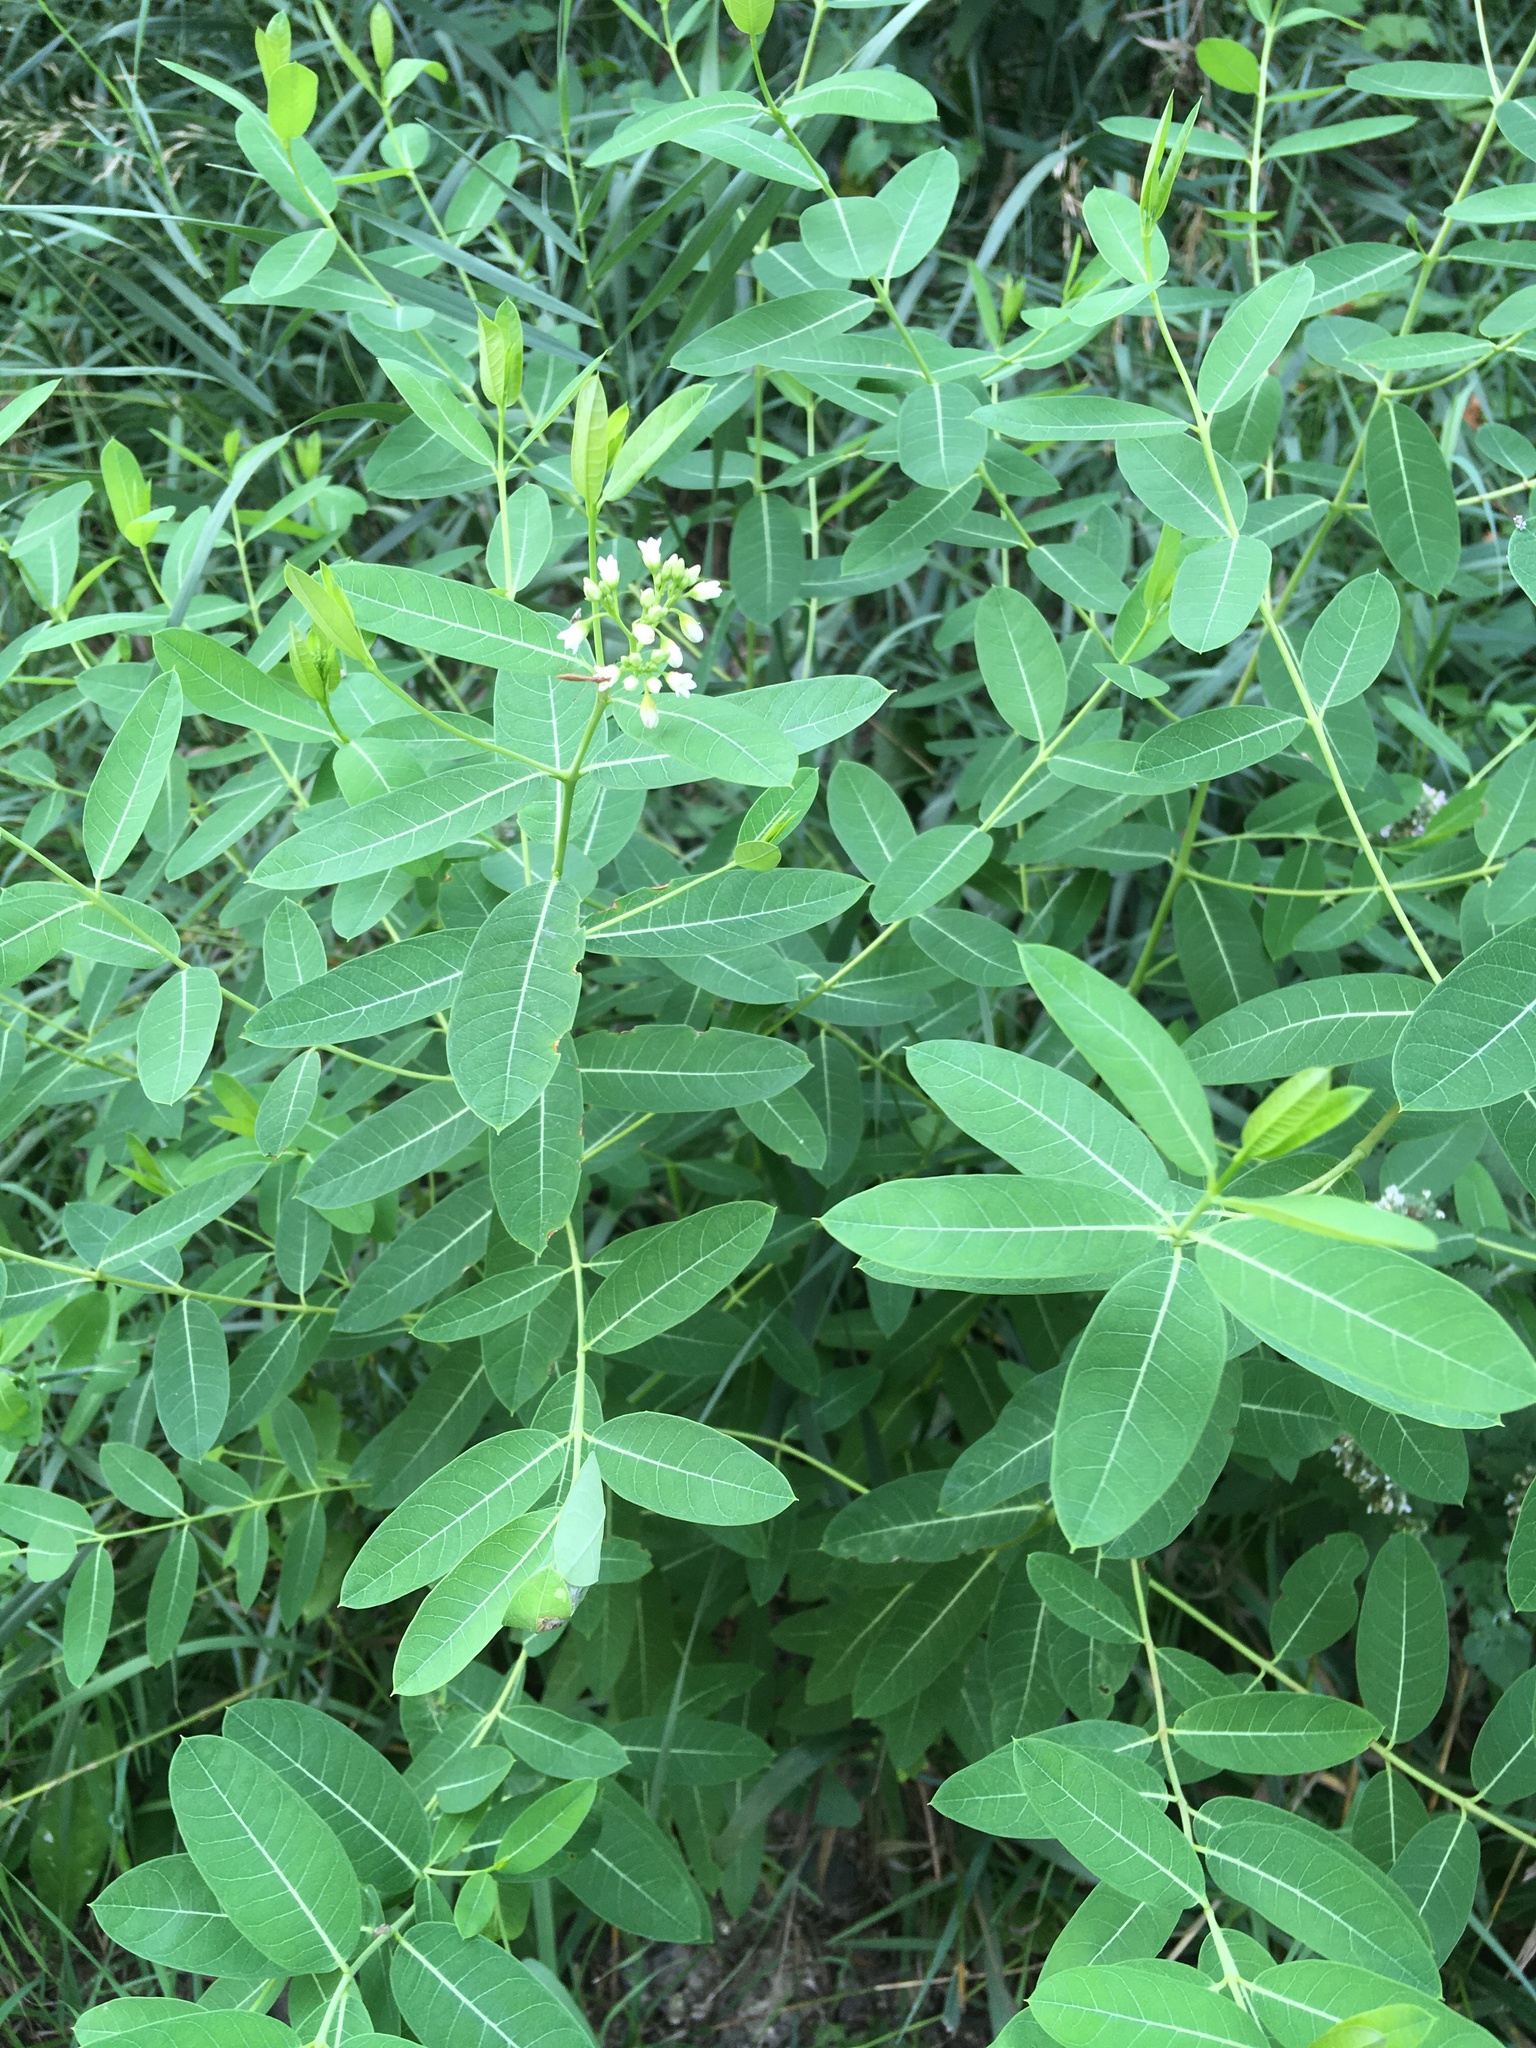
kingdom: Plantae
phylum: Tracheophyta
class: Magnoliopsida
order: Gentianales
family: Apocynaceae
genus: Apocynum
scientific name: Apocynum cannabinum
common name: Hemp dogbane
